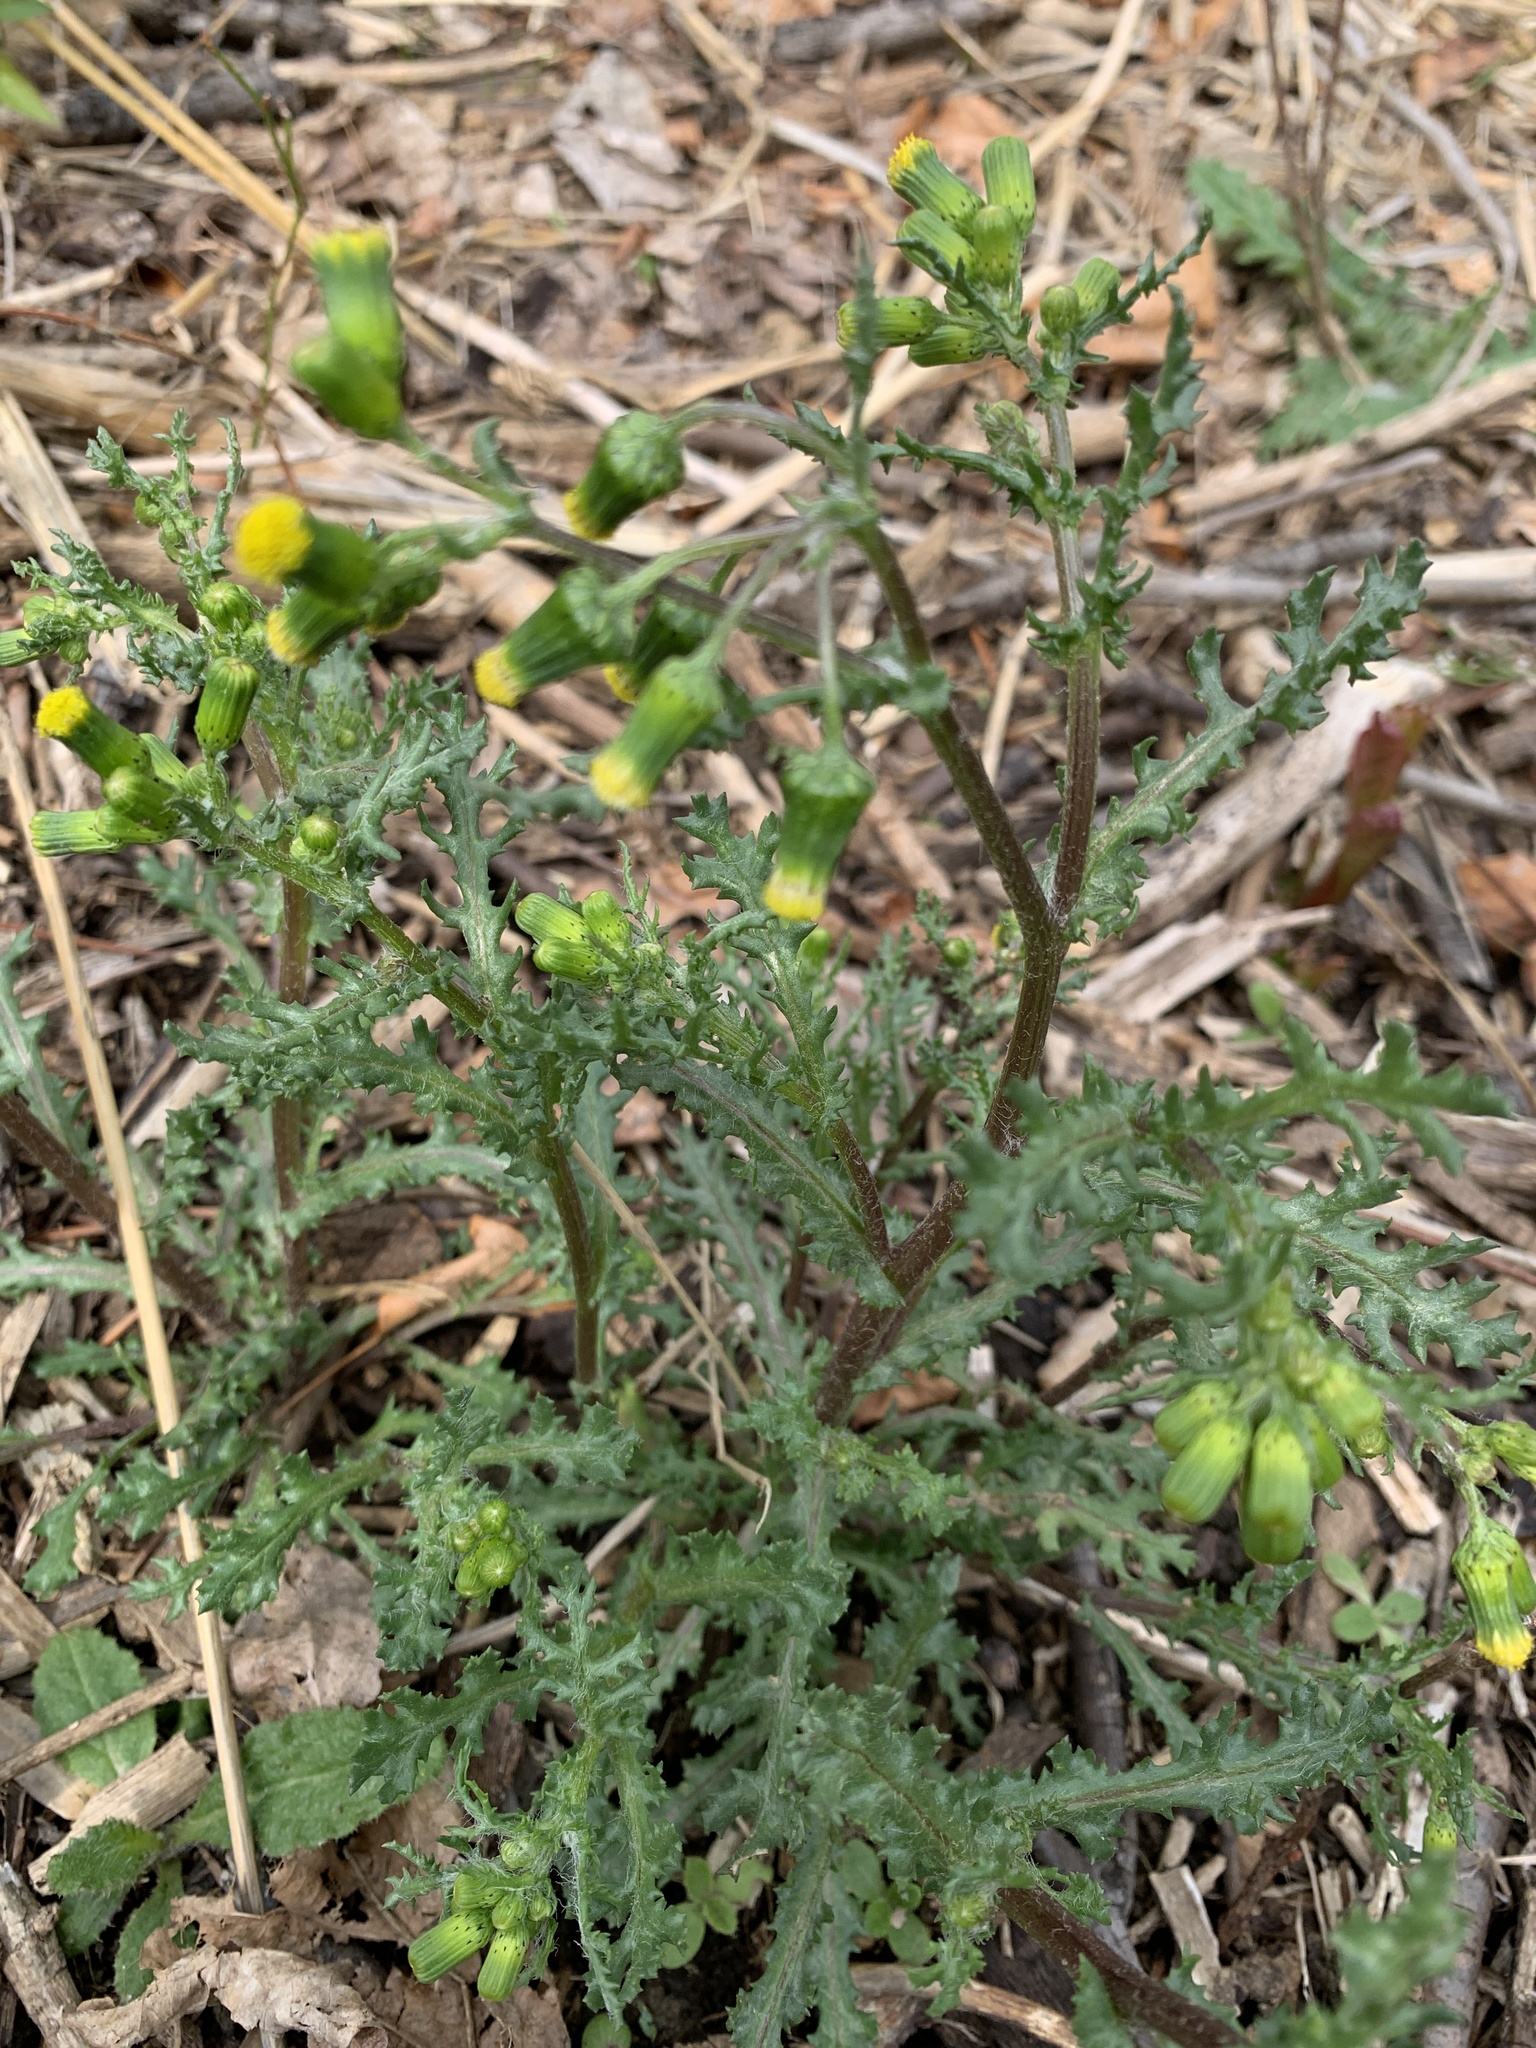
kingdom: Plantae
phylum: Tracheophyta
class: Magnoliopsida
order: Asterales
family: Asteraceae
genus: Senecio
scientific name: Senecio vulgaris
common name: Old-man-in-the-spring
